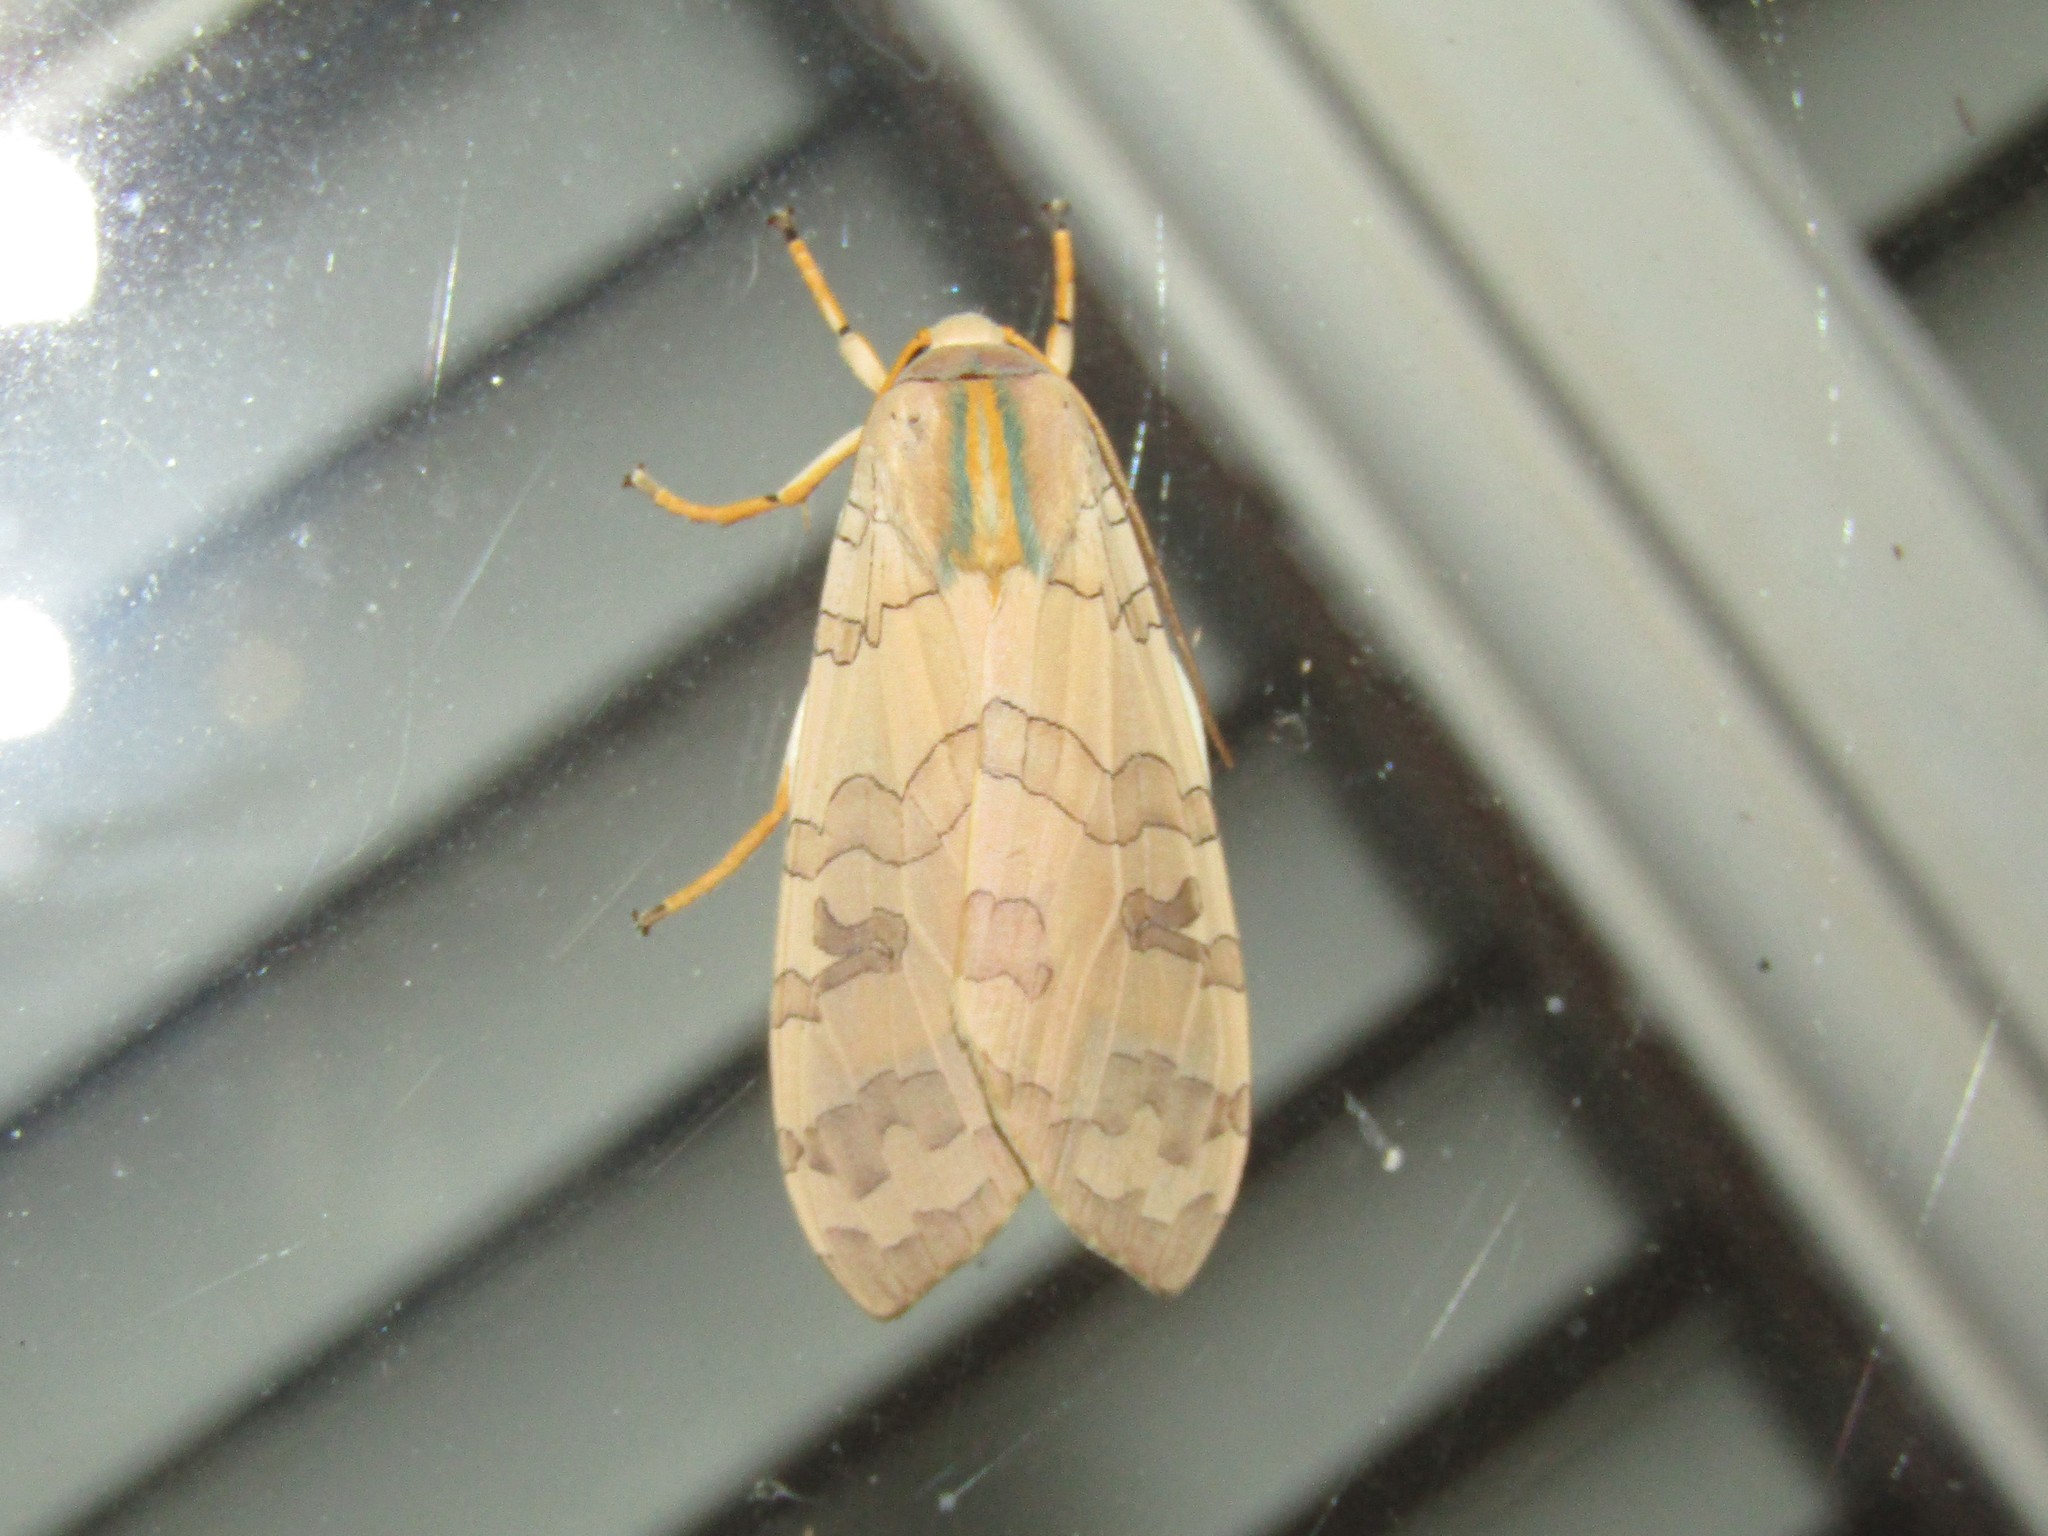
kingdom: Animalia
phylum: Arthropoda
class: Insecta
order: Lepidoptera
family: Erebidae
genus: Halysidota
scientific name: Halysidota
